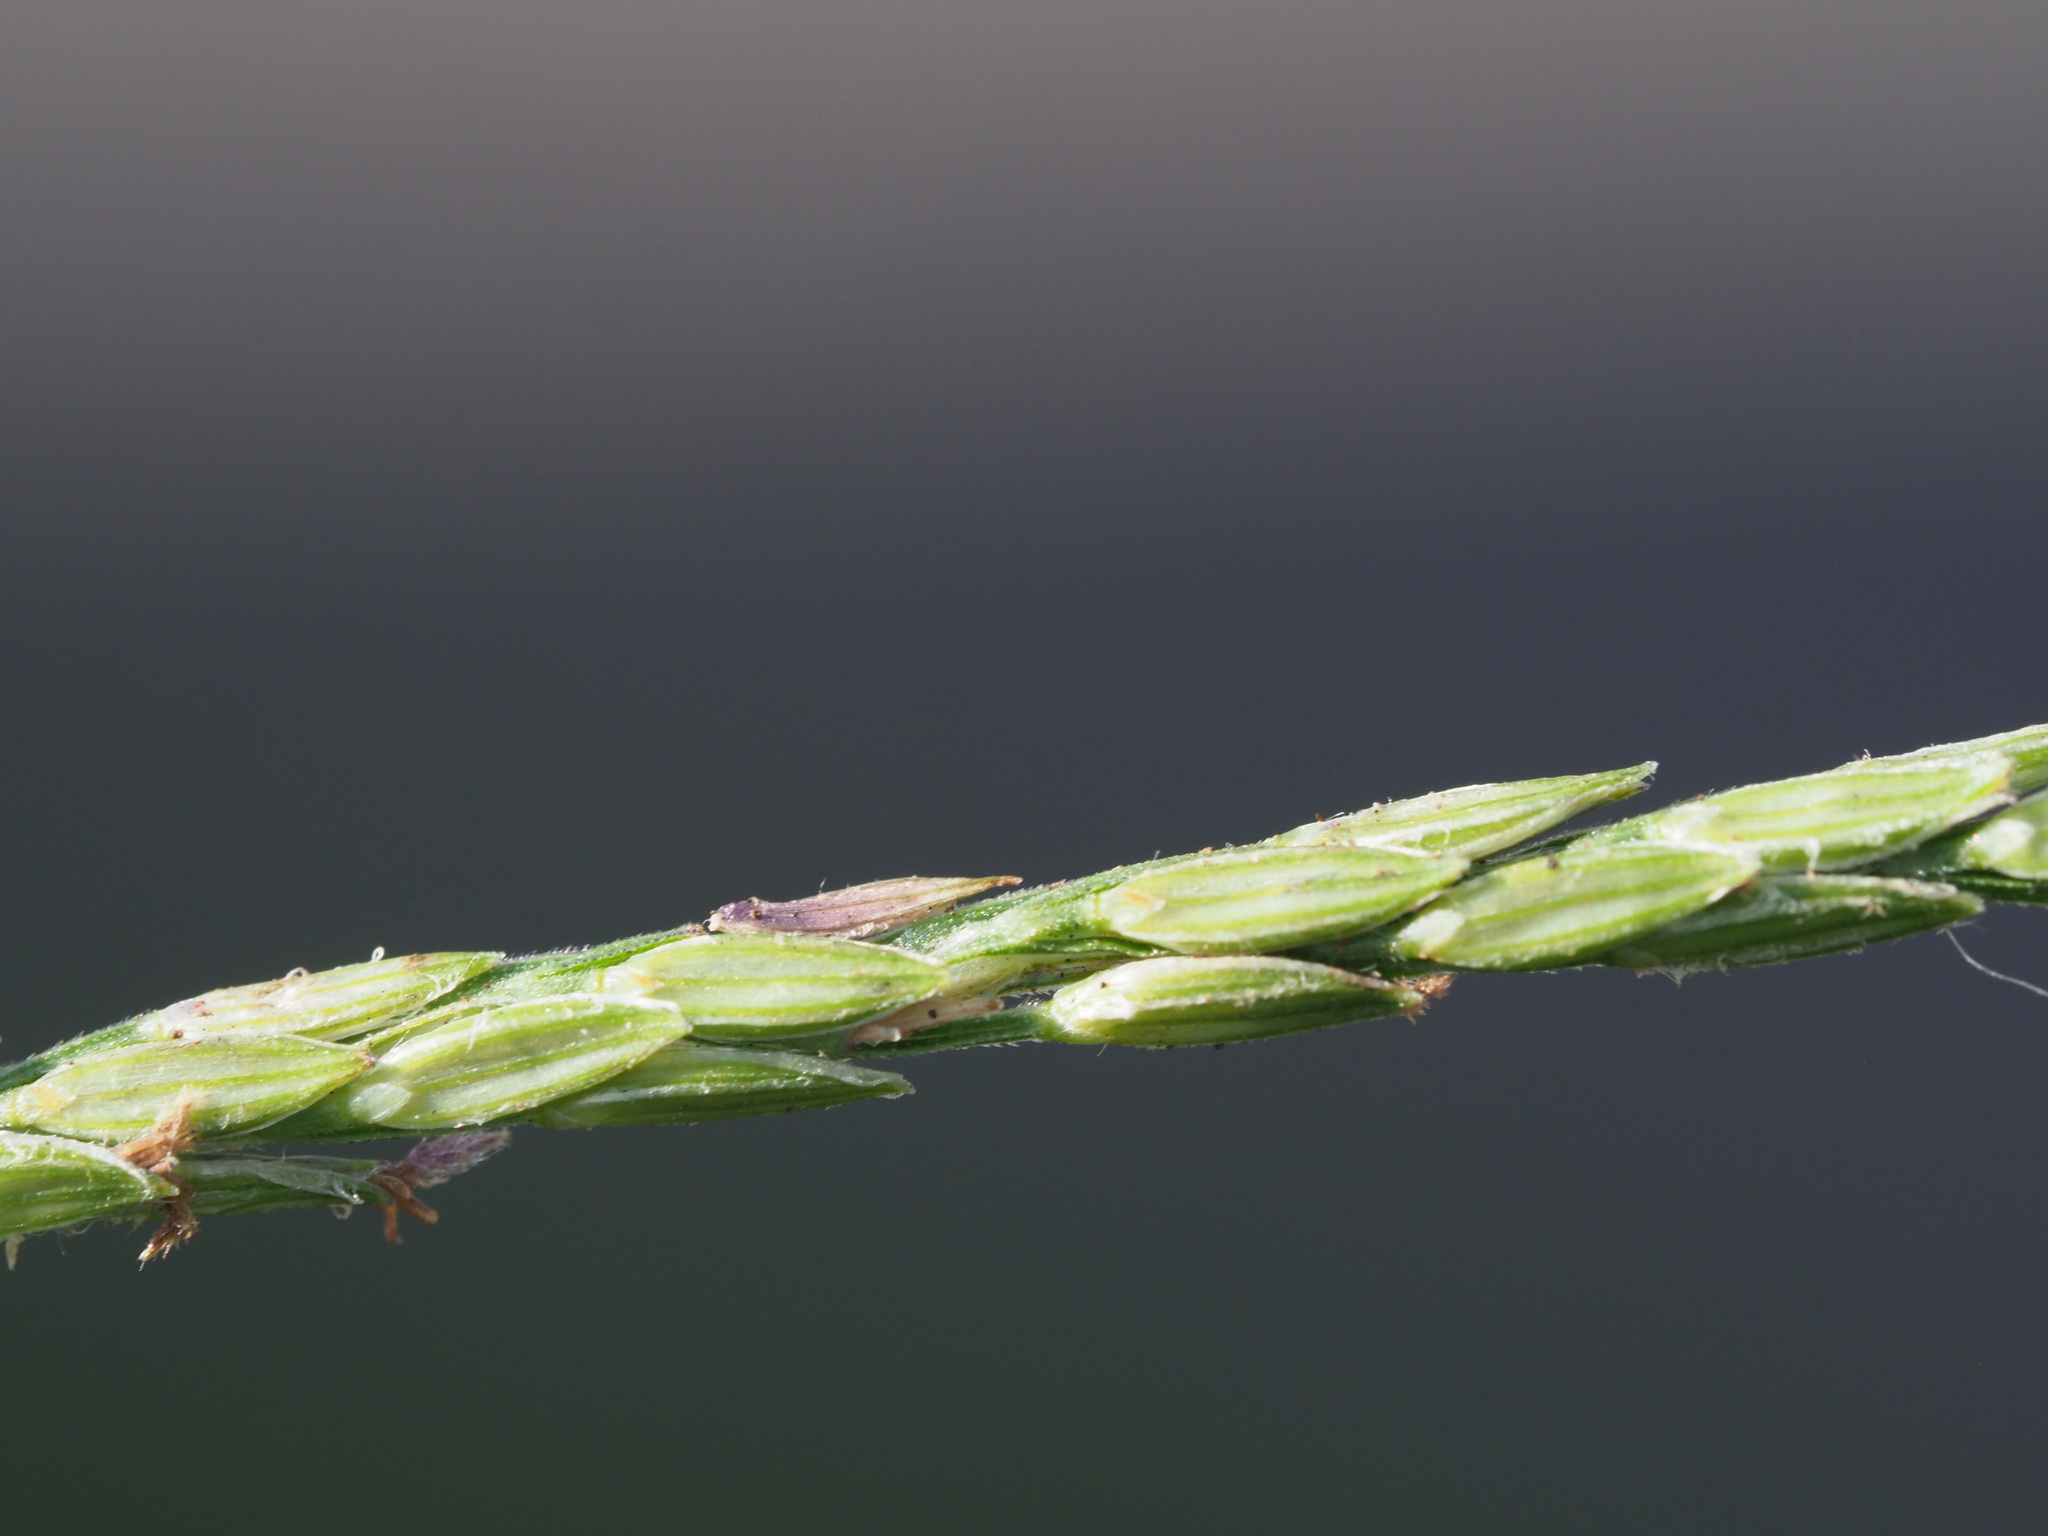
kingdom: Plantae
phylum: Tracheophyta
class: Liliopsida
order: Poales
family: Poaceae
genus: Digitaria
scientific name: Digitaria ciliaris
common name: Tropical finger-grass
